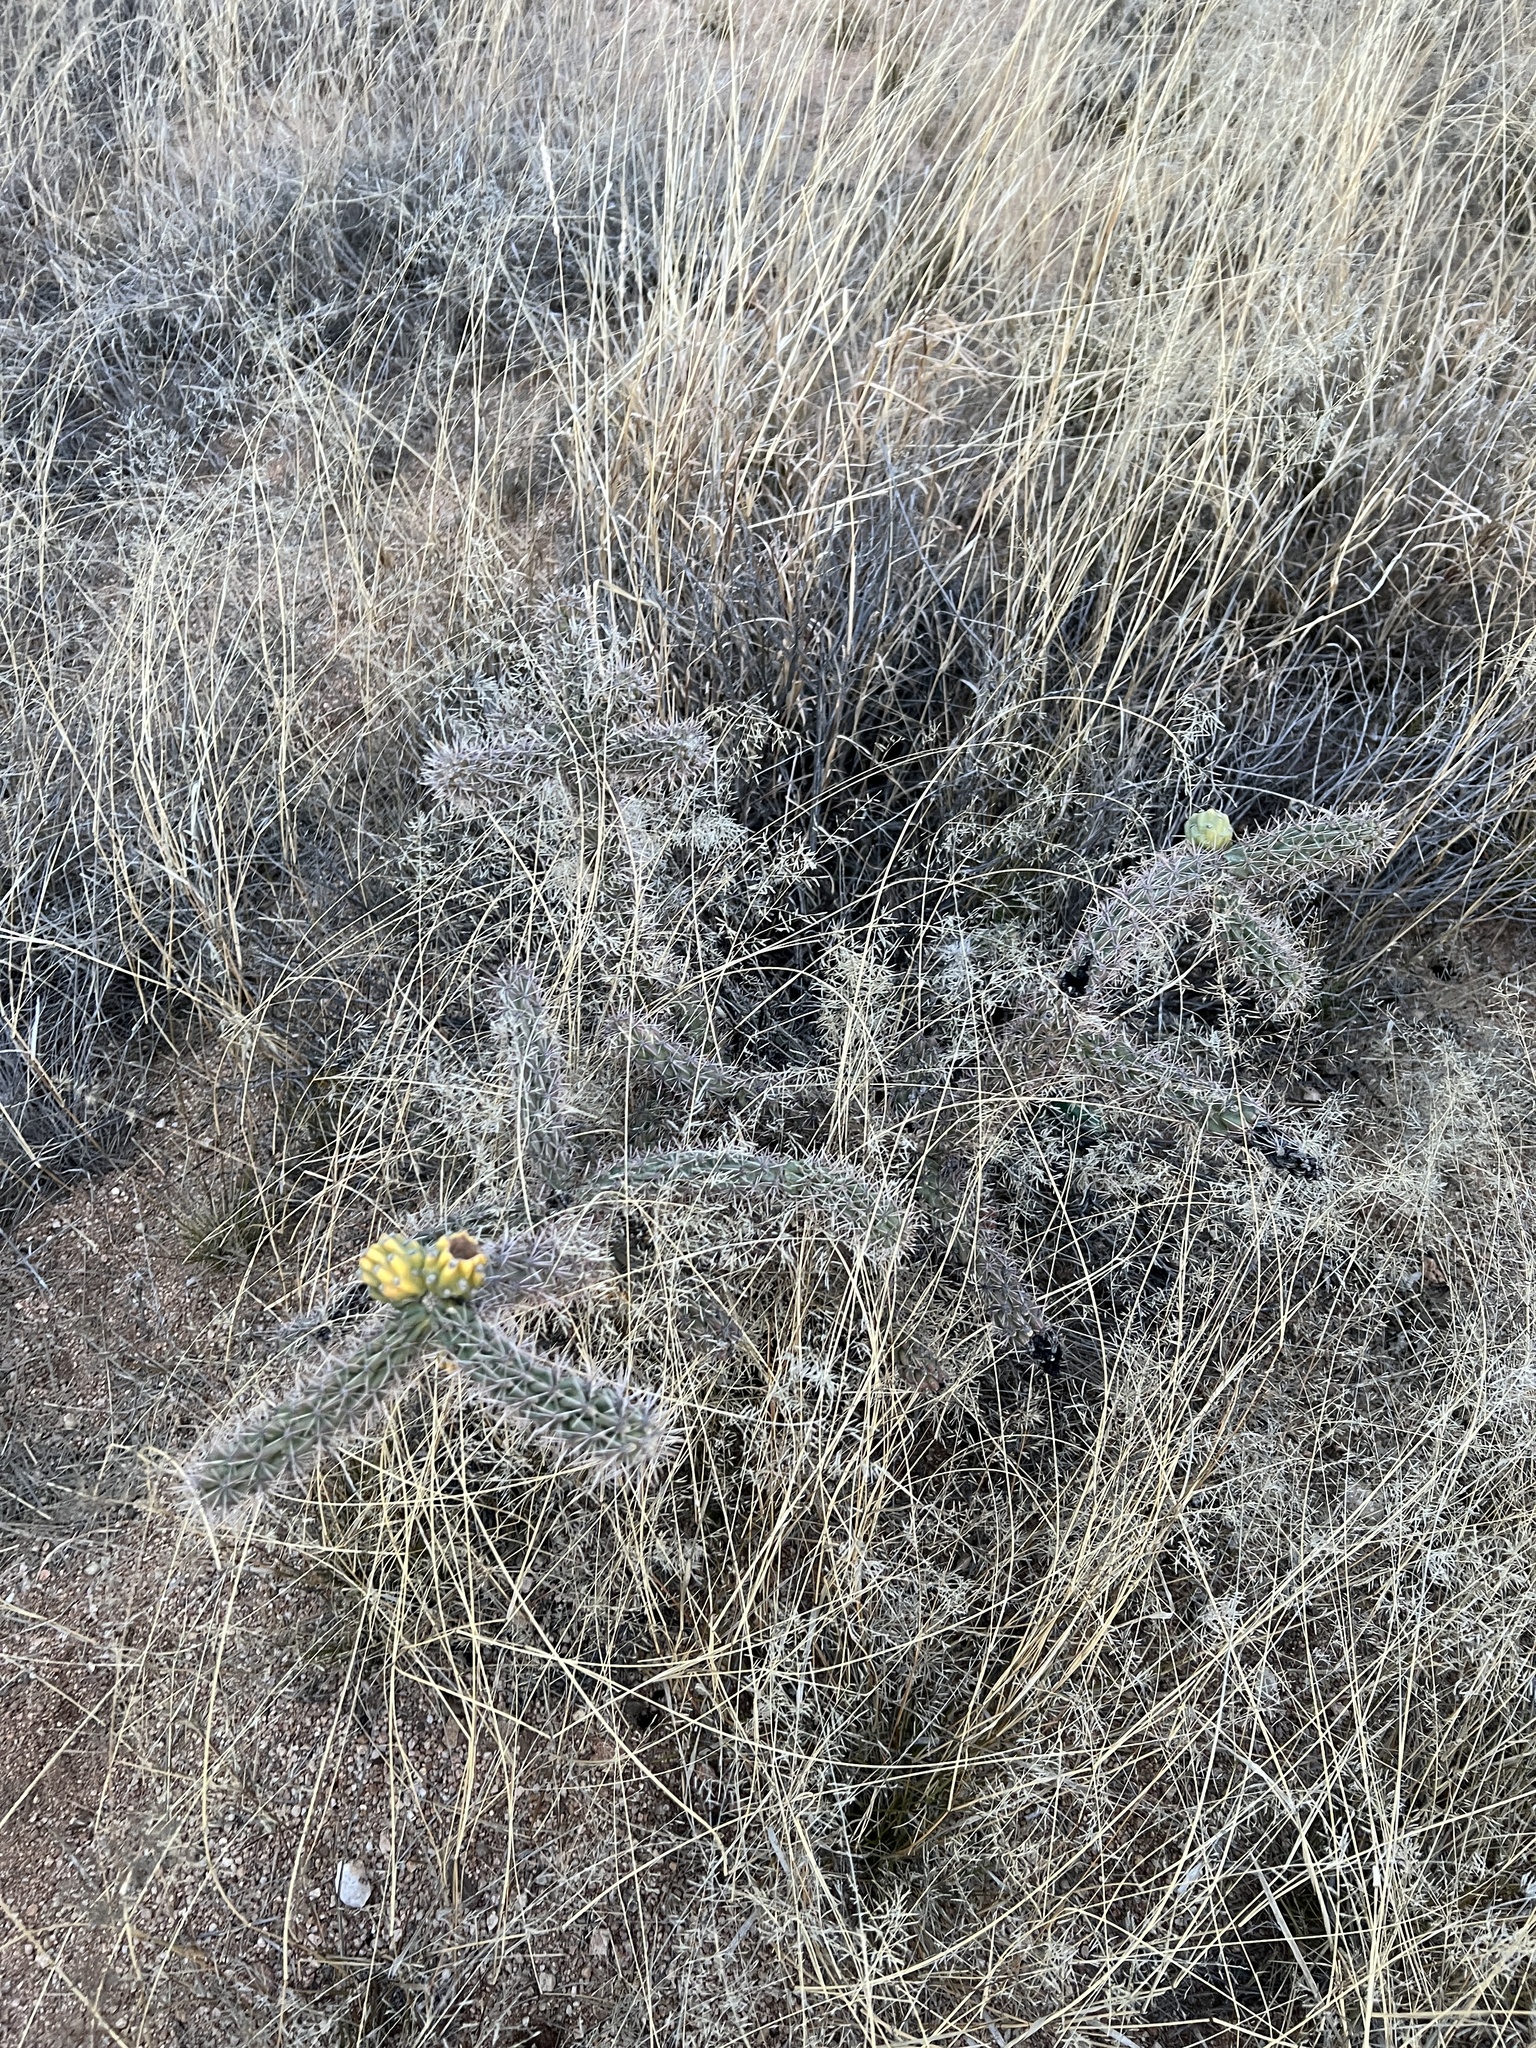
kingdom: Plantae
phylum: Tracheophyta
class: Magnoliopsida
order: Caryophyllales
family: Cactaceae
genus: Cylindropuntia
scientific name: Cylindropuntia imbricata
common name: Candelabrum cactus
